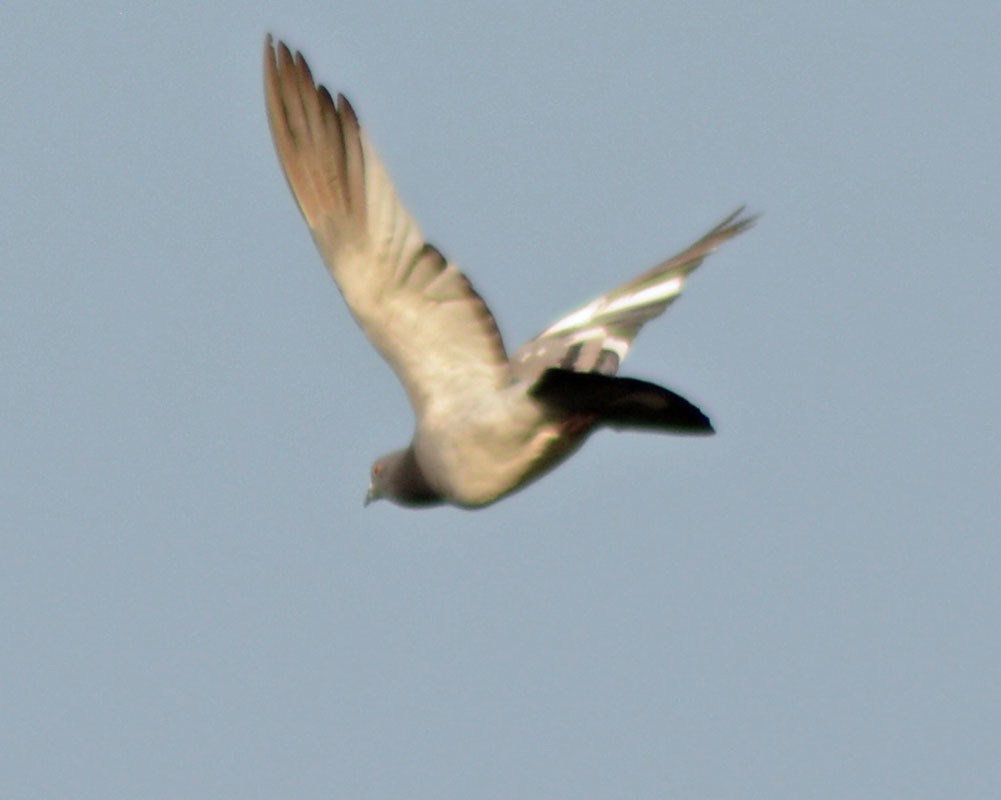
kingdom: Animalia
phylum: Chordata
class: Aves
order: Columbiformes
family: Columbidae
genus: Columba
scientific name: Columba livia
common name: Rock pigeon
